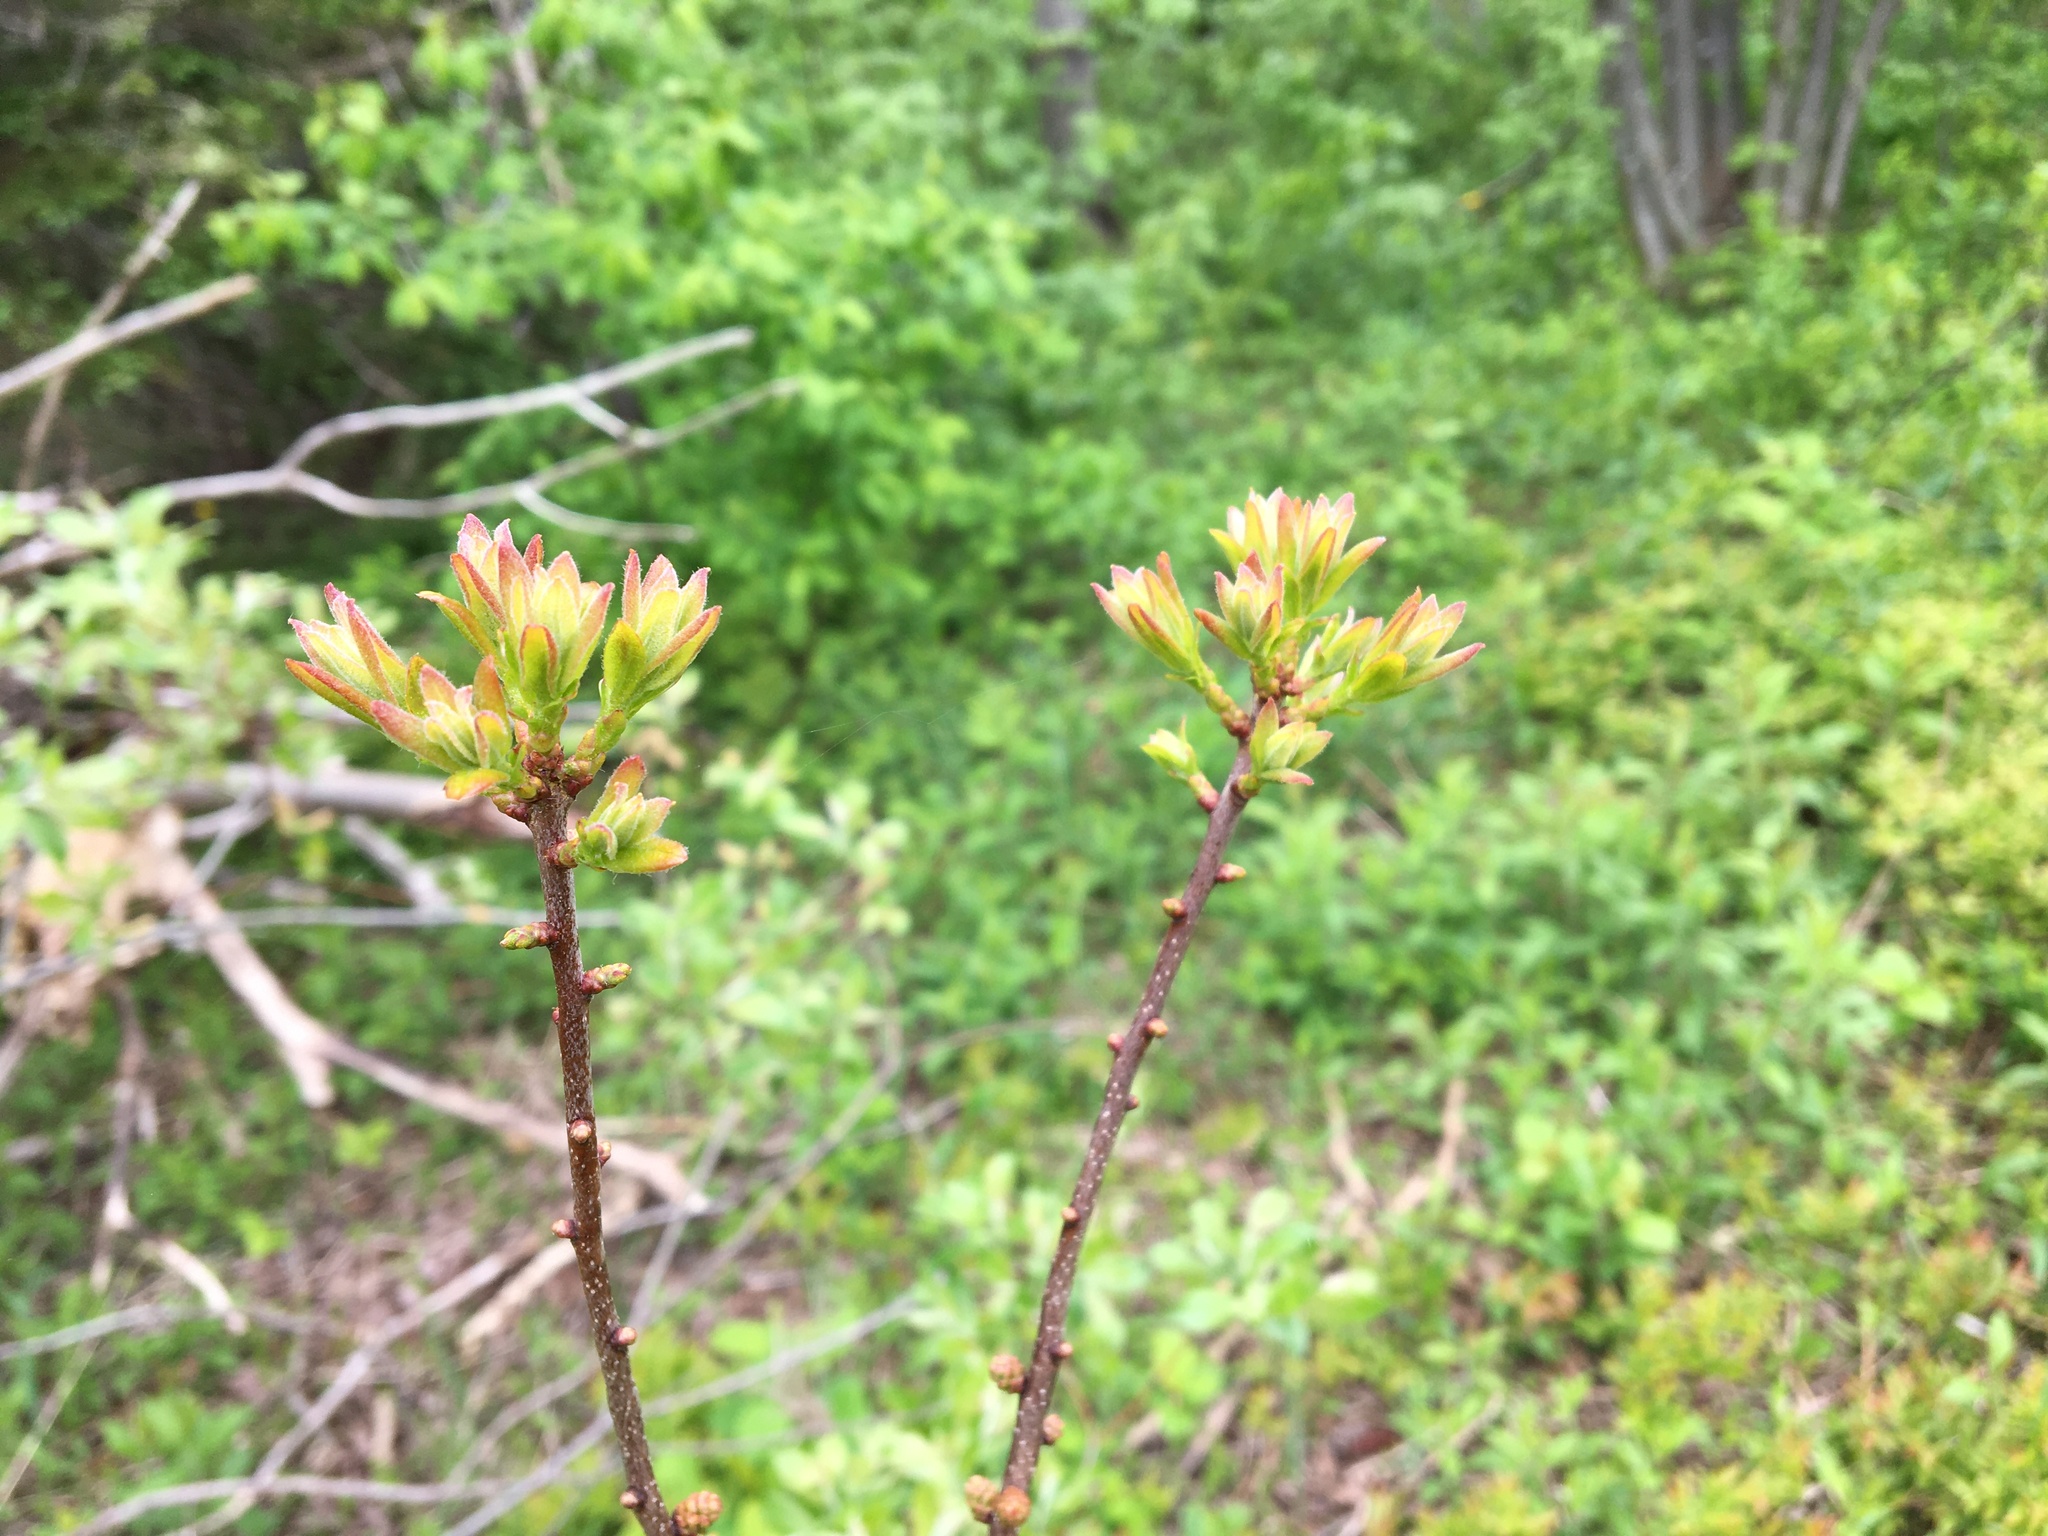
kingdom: Plantae
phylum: Tracheophyta
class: Magnoliopsida
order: Fagales
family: Myricaceae
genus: Morella
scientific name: Morella pensylvanica
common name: Northern bayberry
